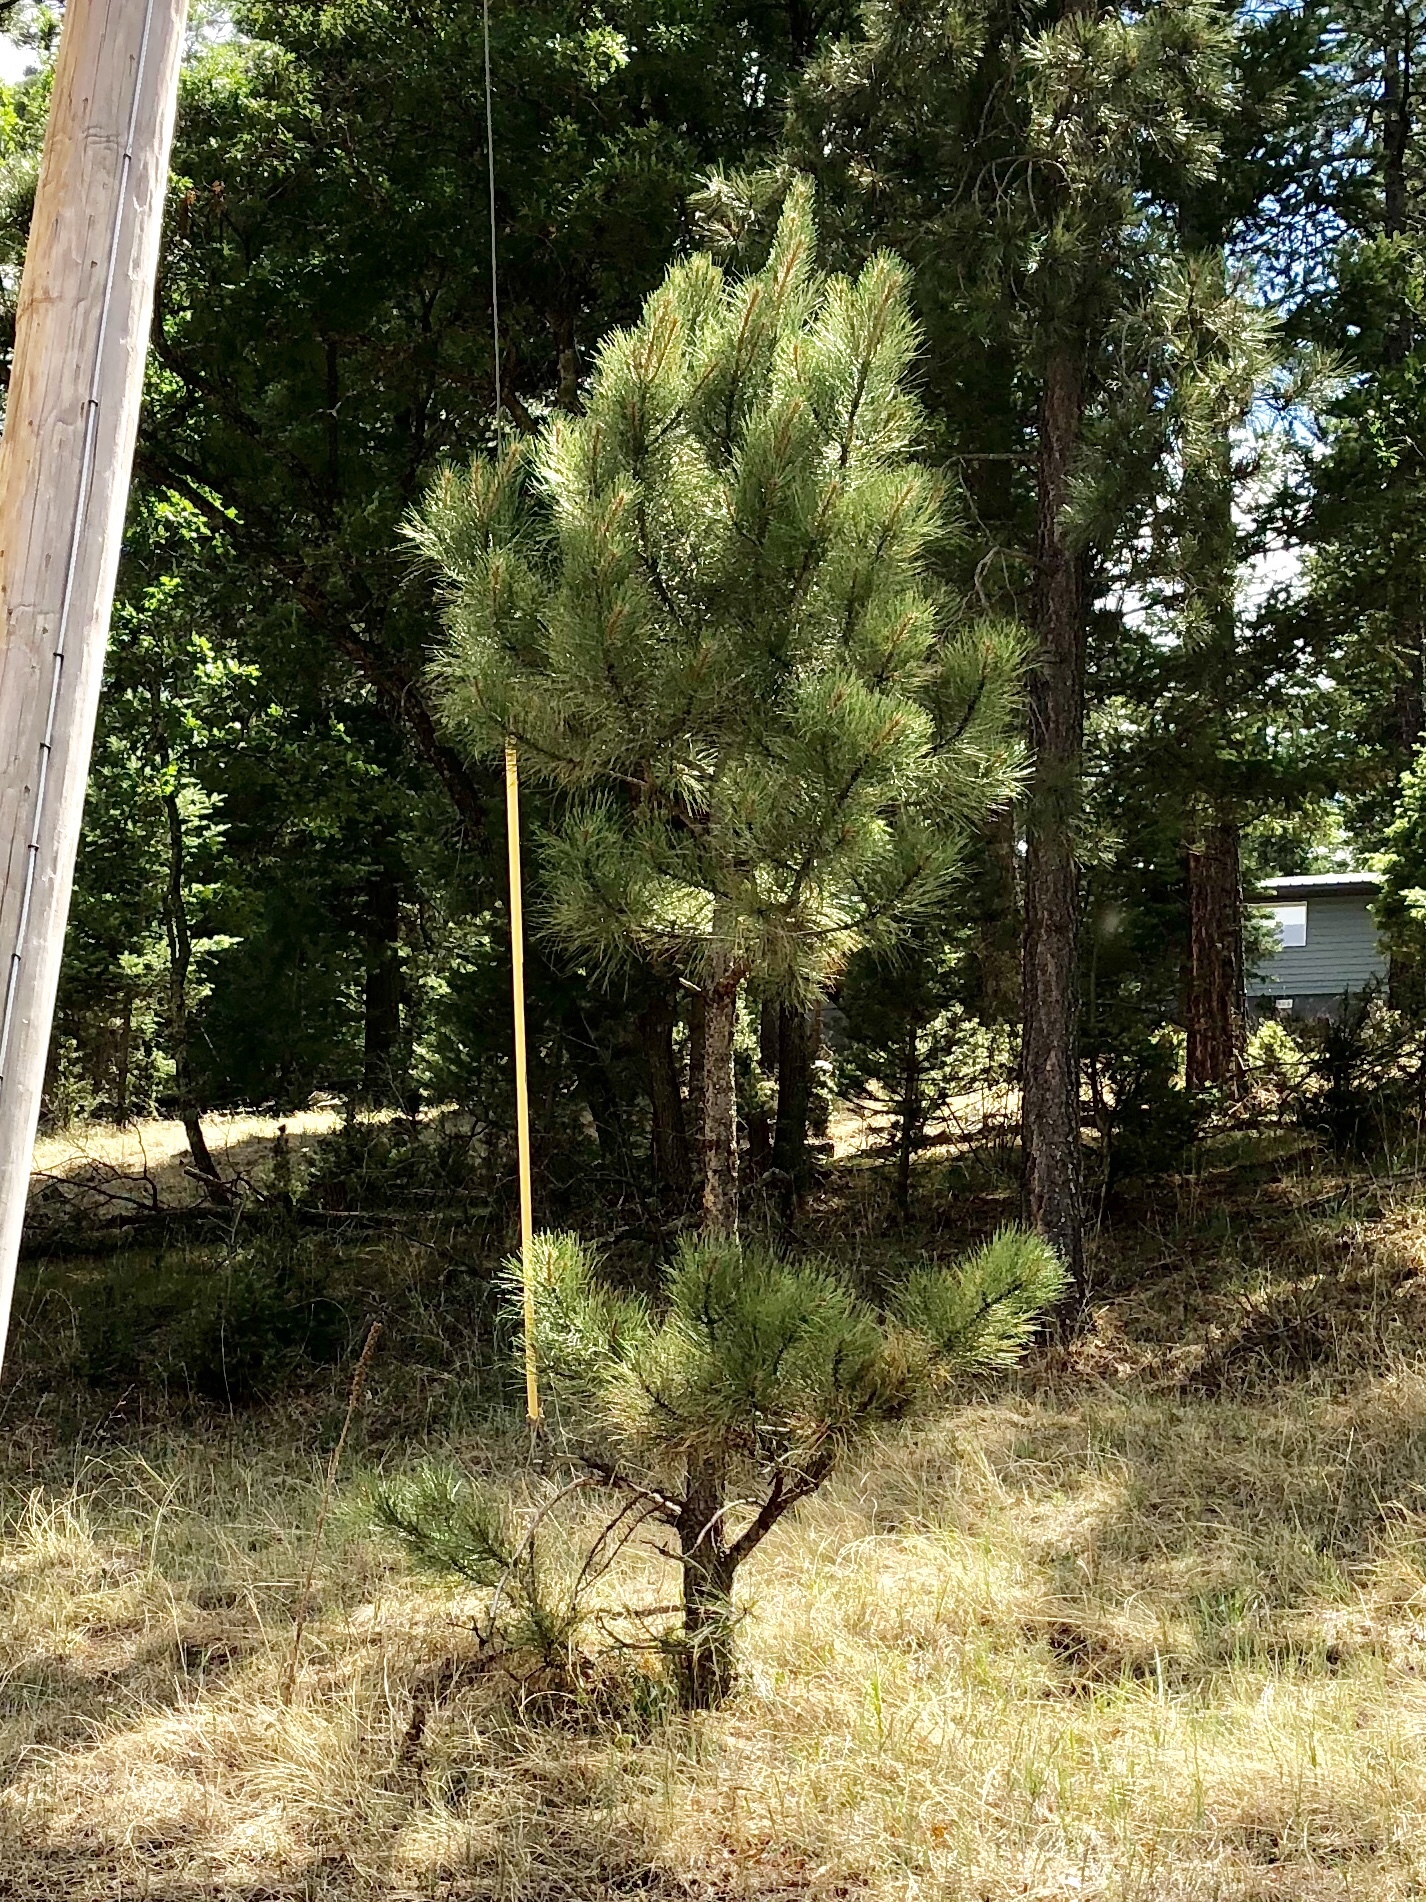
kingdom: Plantae
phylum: Tracheophyta
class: Pinopsida
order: Pinales
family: Pinaceae
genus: Pinus
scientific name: Pinus ponderosa
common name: Western yellow-pine
